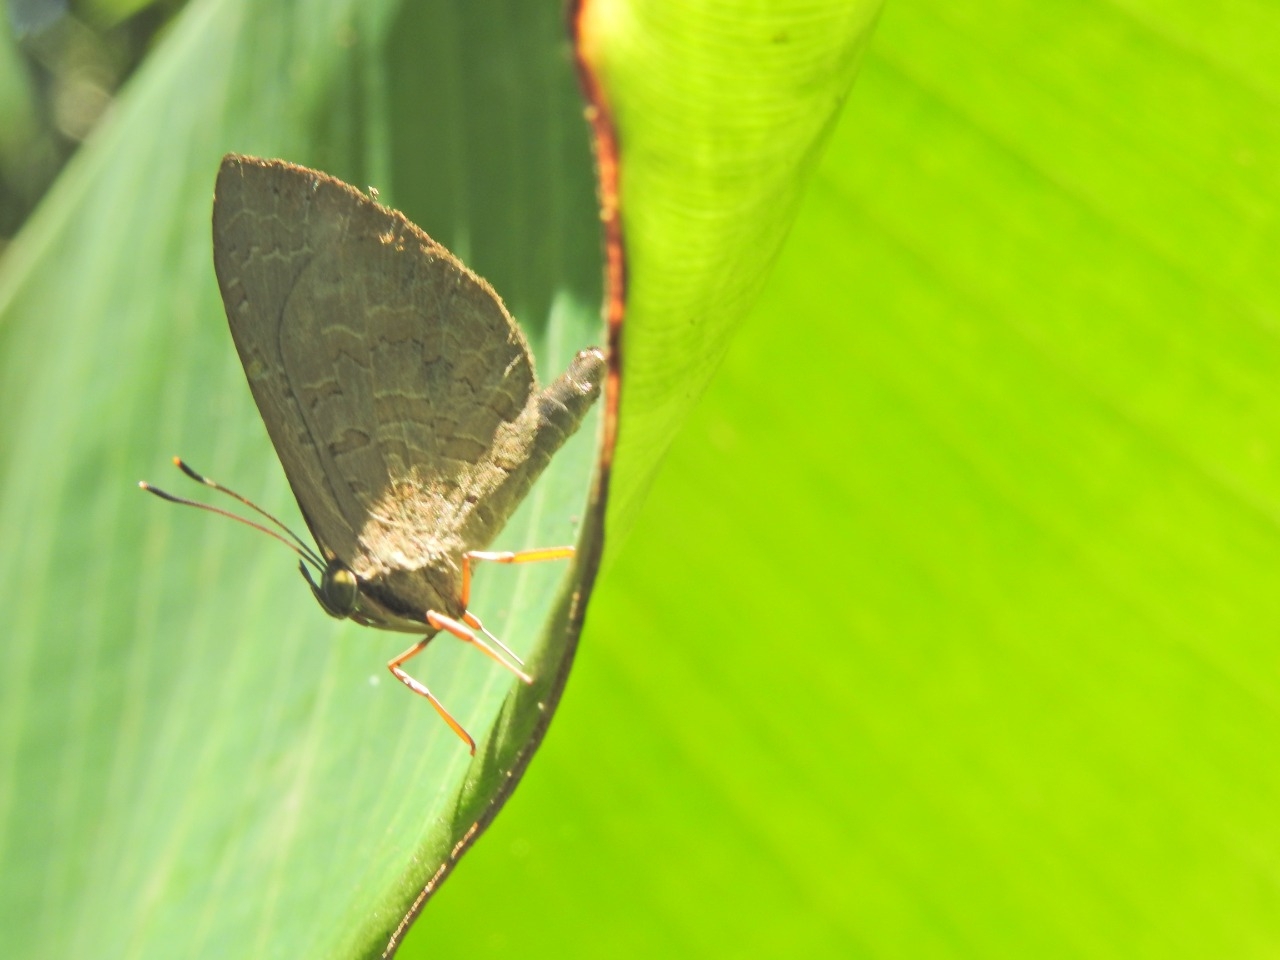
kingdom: Animalia
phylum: Arthropoda
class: Insecta
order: Lepidoptera
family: Lycaenidae
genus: Miletus
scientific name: Miletus leos
